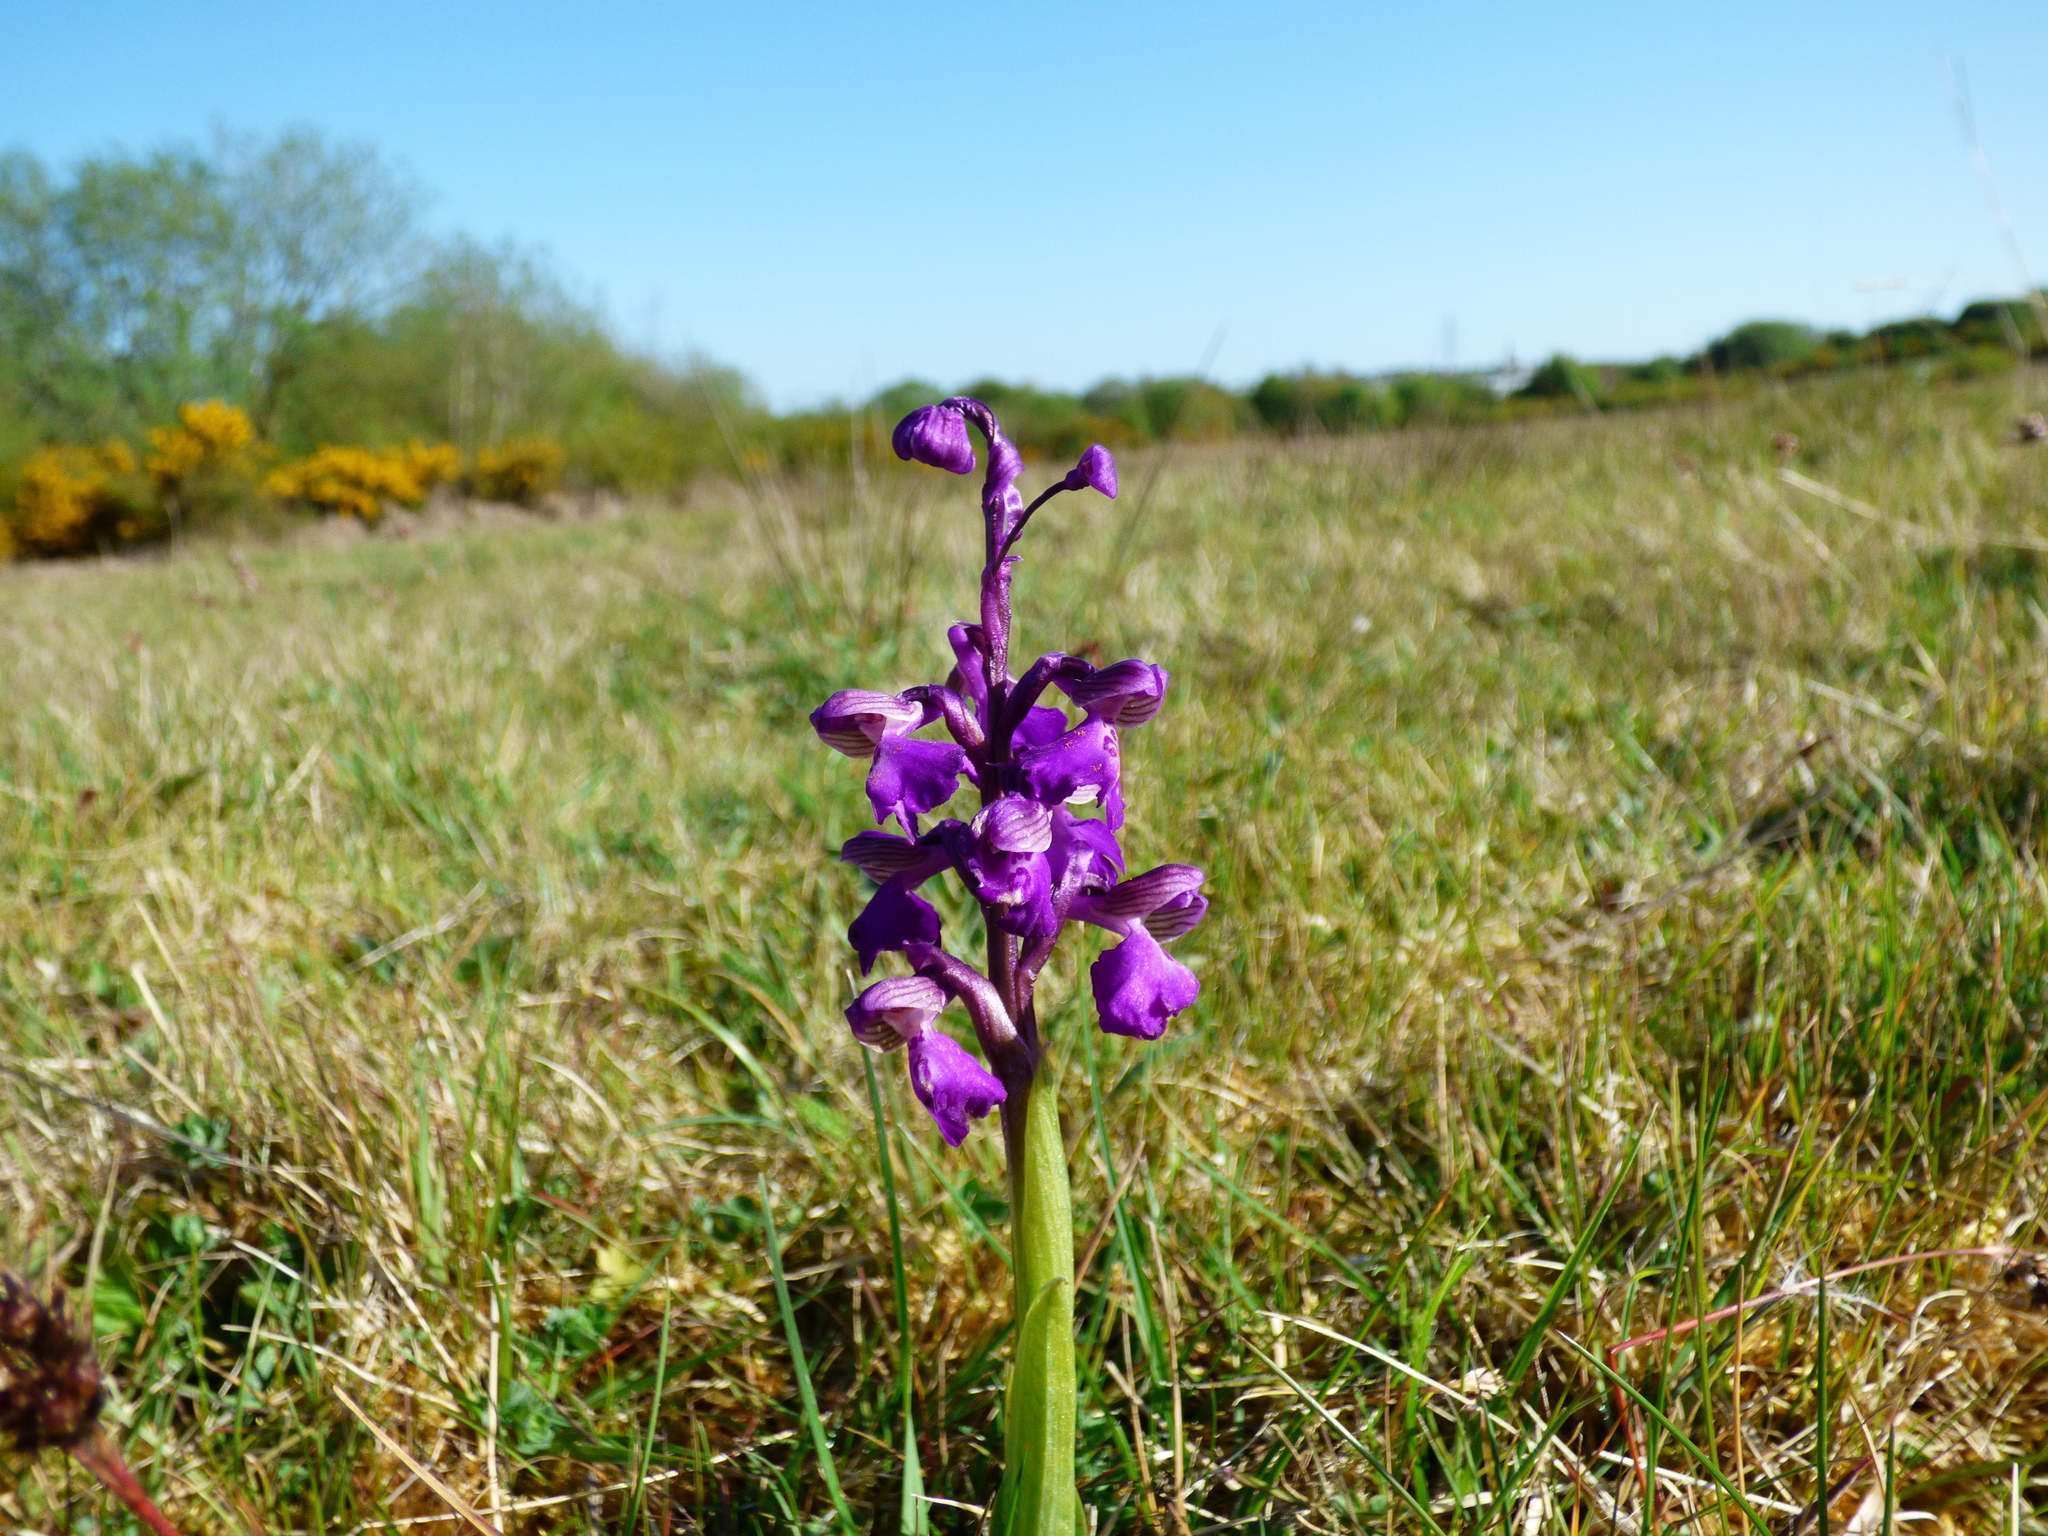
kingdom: Plantae
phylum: Tracheophyta
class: Liliopsida
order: Asparagales
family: Orchidaceae
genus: Anacamptis
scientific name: Anacamptis morio
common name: Green-winged orchid
